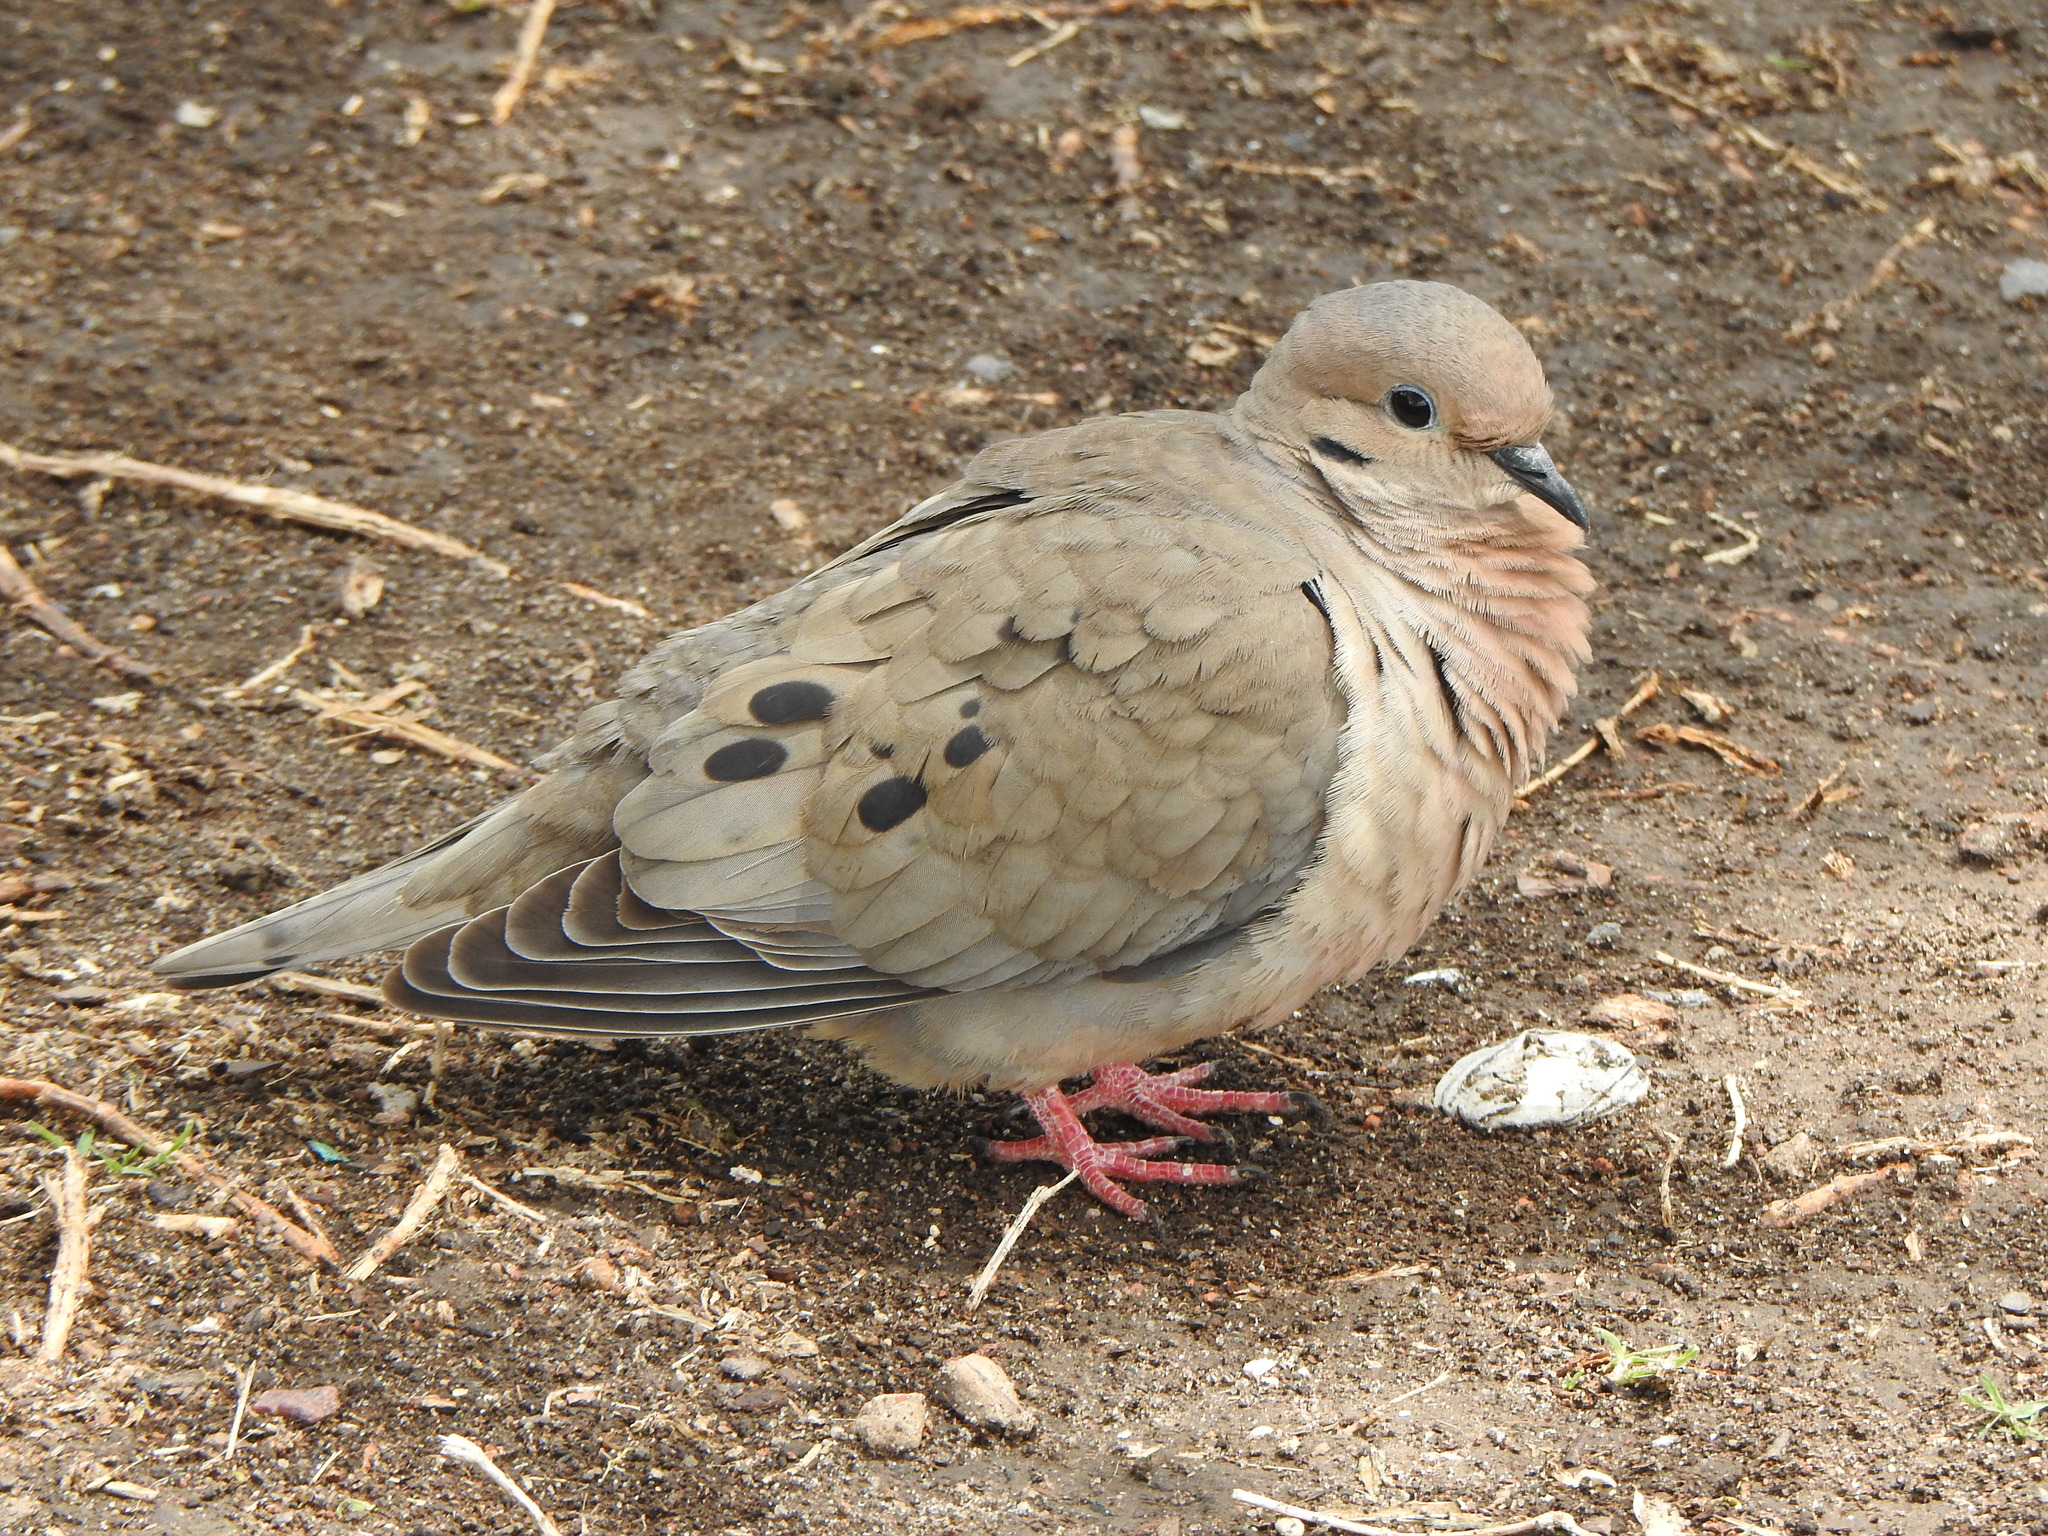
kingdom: Animalia
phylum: Chordata
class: Aves
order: Columbiformes
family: Columbidae
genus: Zenaida
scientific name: Zenaida auriculata
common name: Eared dove
